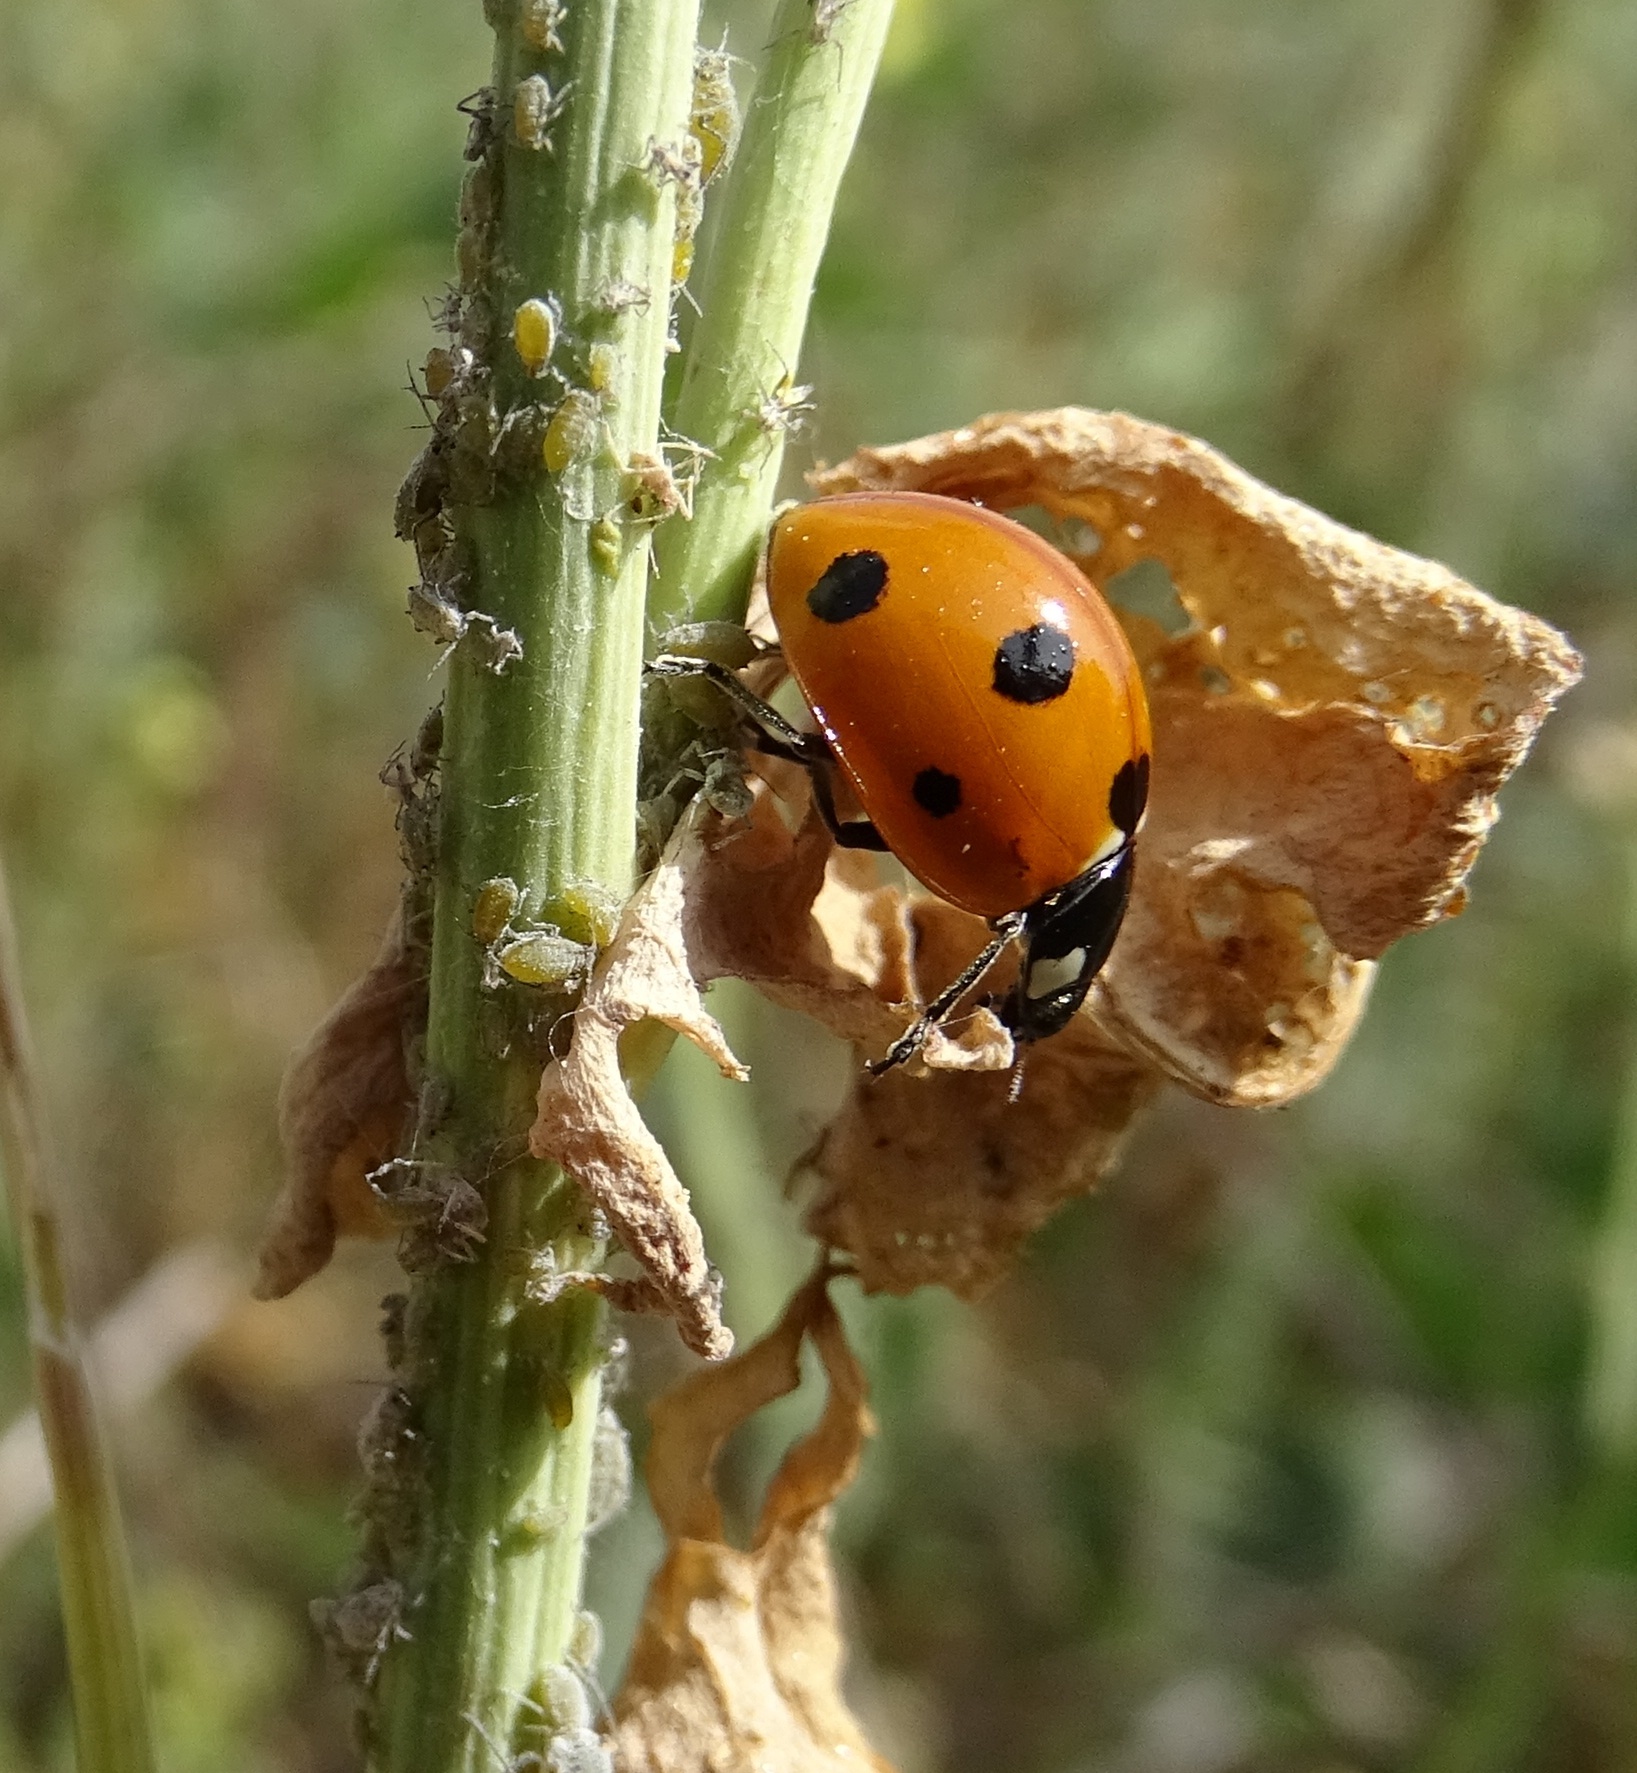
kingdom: Animalia
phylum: Arthropoda
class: Insecta
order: Coleoptera
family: Coccinellidae
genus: Coccinella
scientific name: Coccinella septempunctata
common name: Sevenspotted lady beetle
